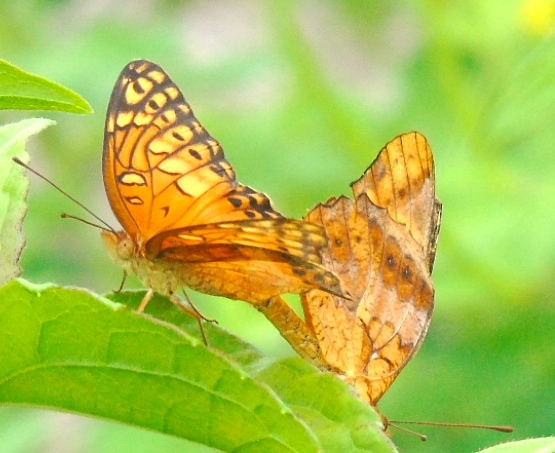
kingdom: Animalia
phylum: Arthropoda
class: Insecta
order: Lepidoptera
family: Nymphalidae
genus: Euptoieta
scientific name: Euptoieta hegesia
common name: Mexican fritillary
